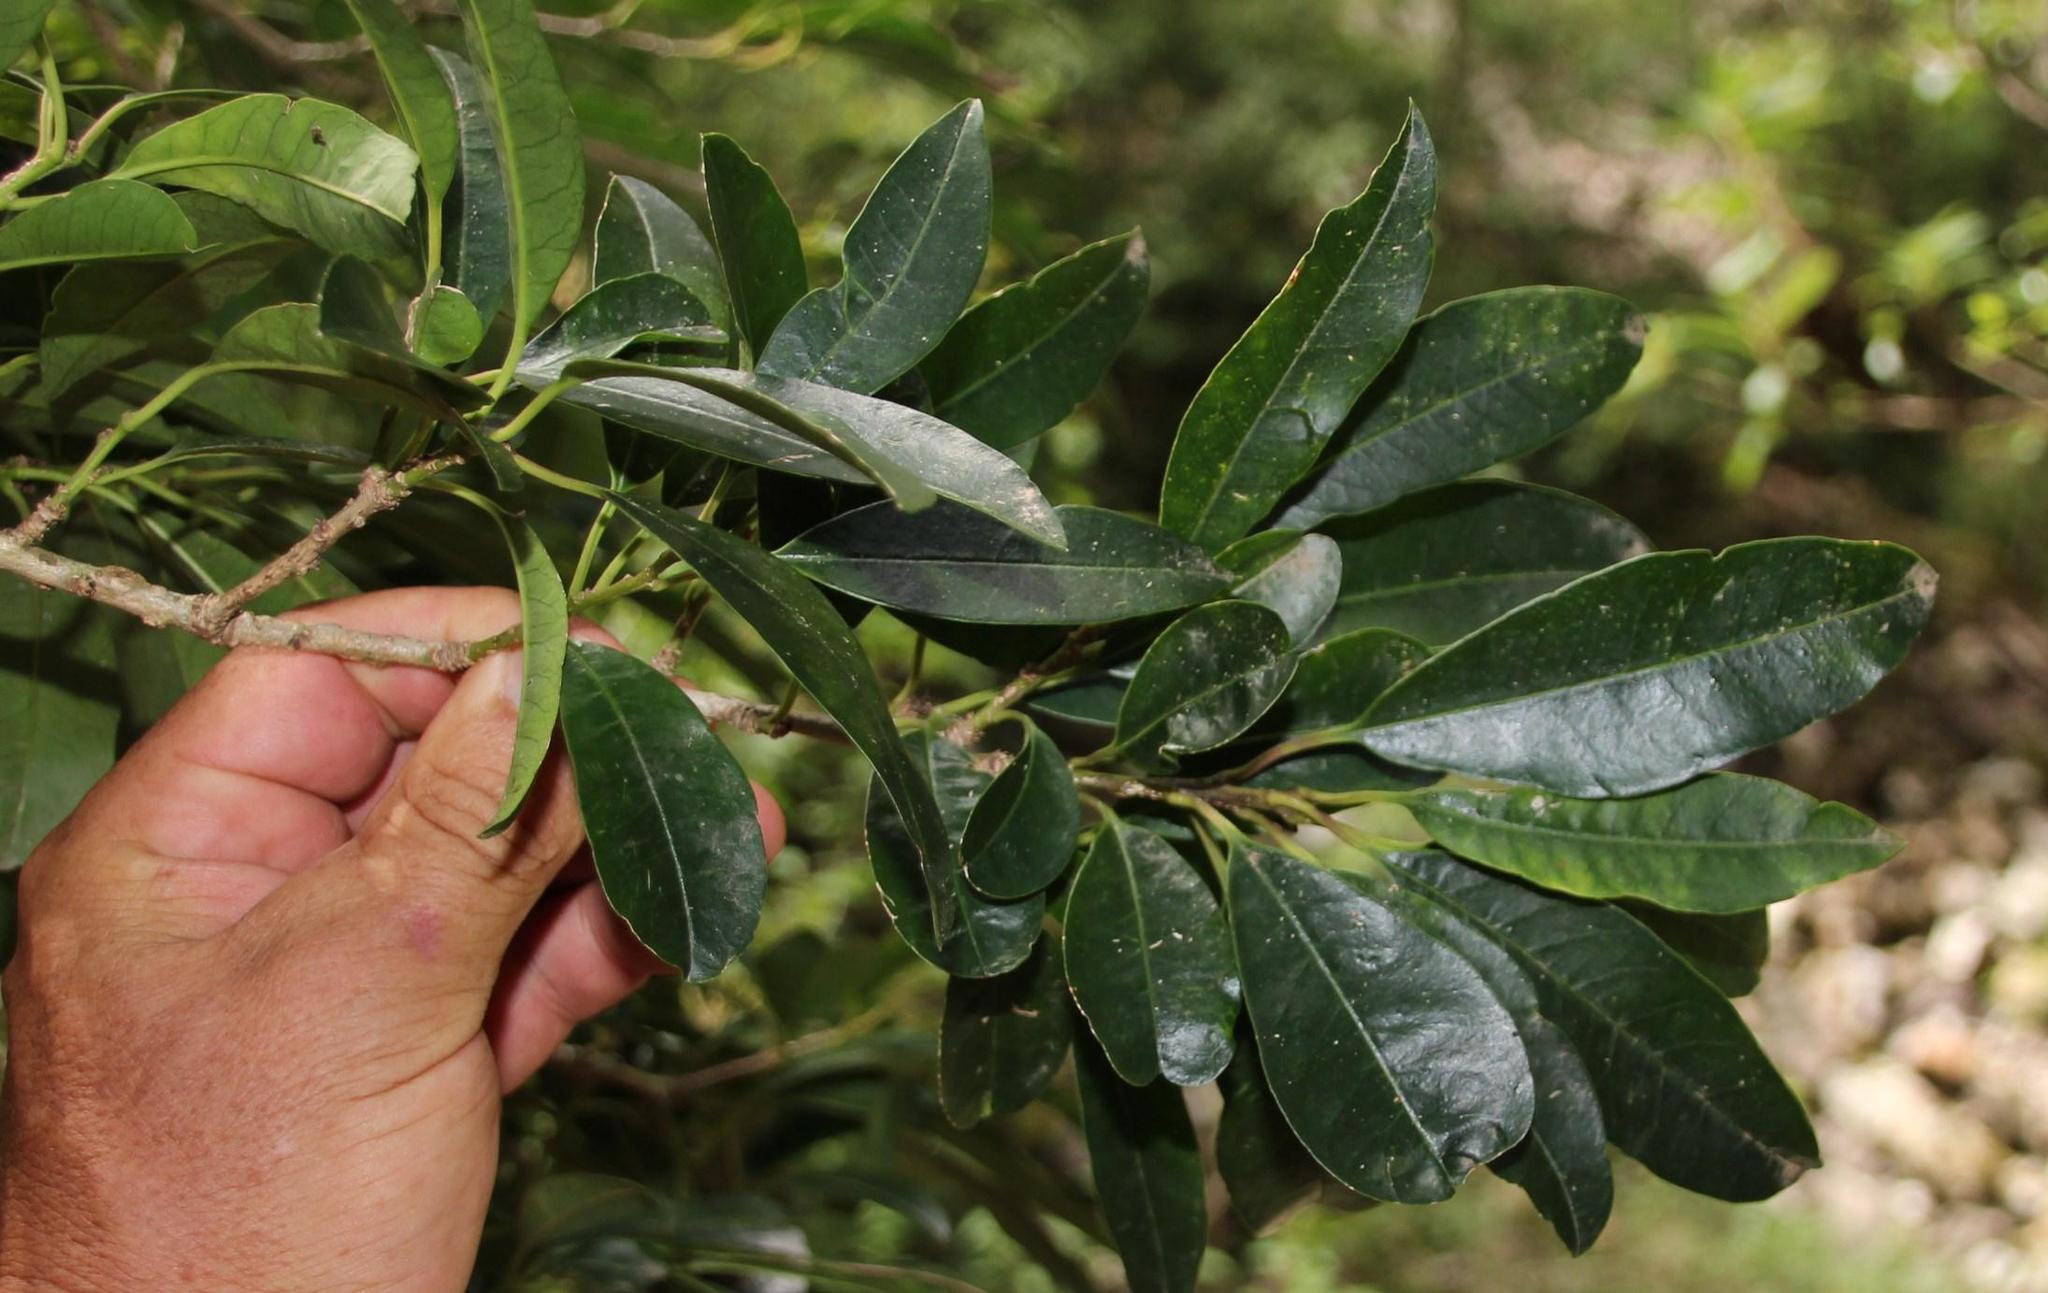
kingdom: Plantae
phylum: Tracheophyta
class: Magnoliopsida
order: Aquifoliales
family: Aquifoliaceae
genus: Ilex
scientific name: Ilex mitis
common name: African holly
